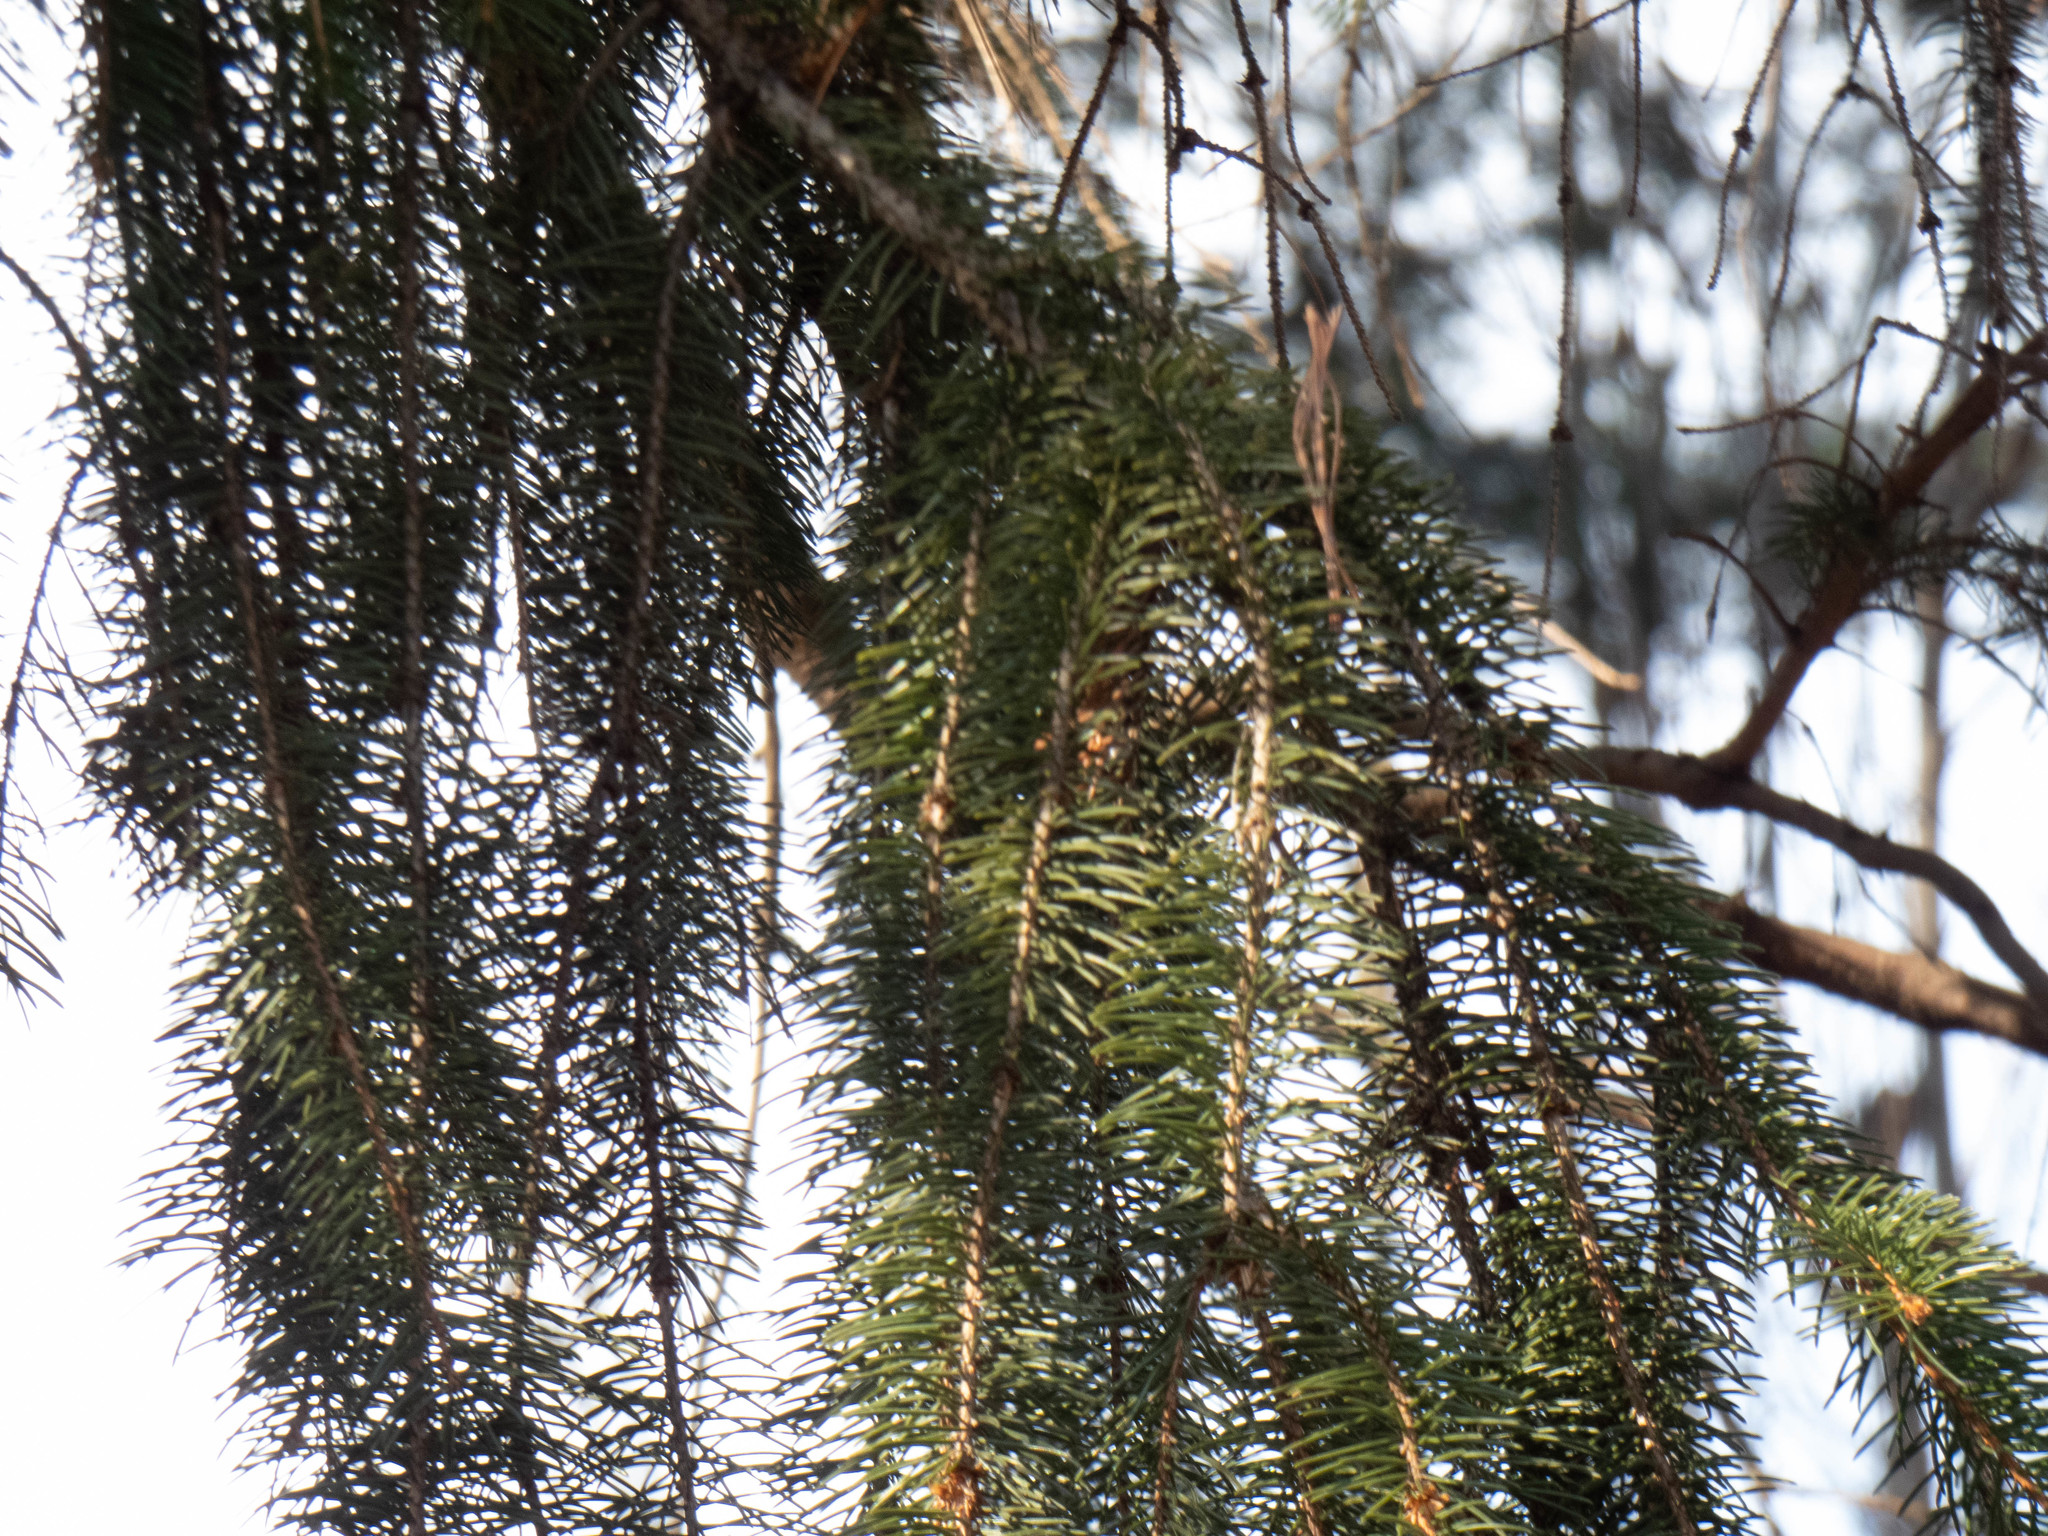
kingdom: Plantae
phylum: Tracheophyta
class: Pinopsida
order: Pinales
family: Pinaceae
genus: Picea
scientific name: Picea abies
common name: Norway spruce
